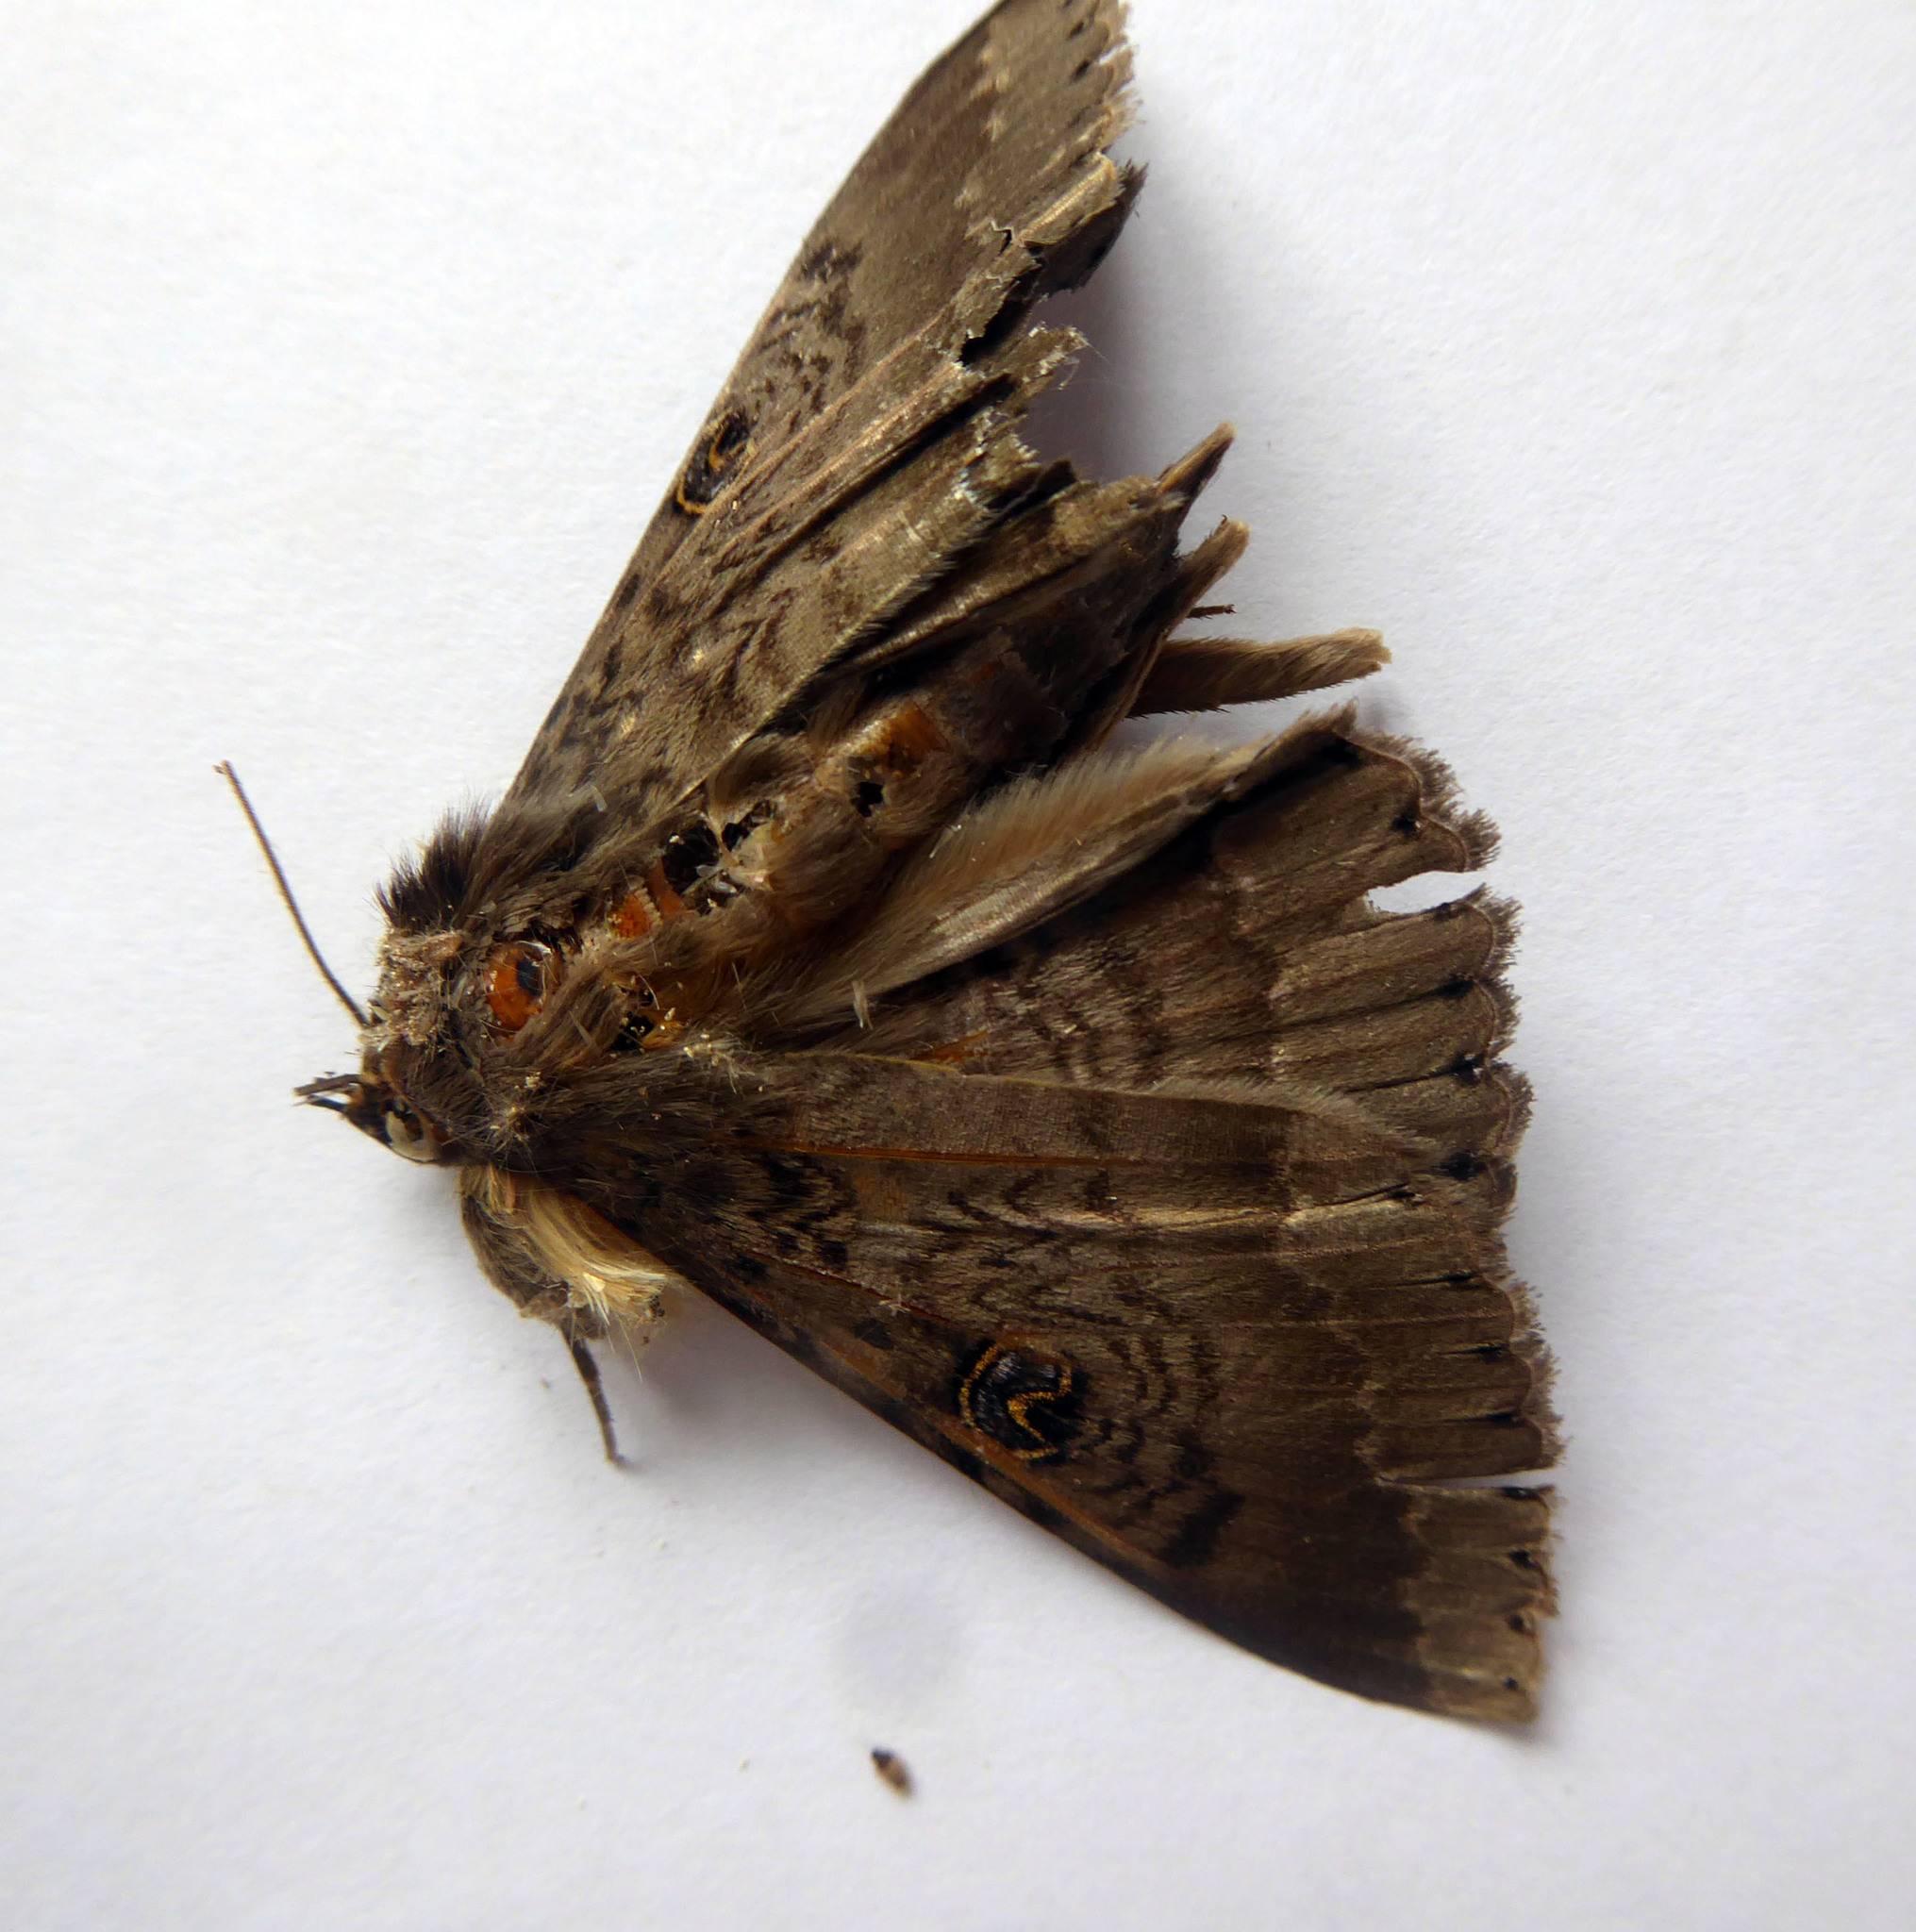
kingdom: Animalia
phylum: Arthropoda
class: Insecta
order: Lepidoptera
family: Erebidae
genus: Dasypodia
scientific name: Dasypodia cymatodes
